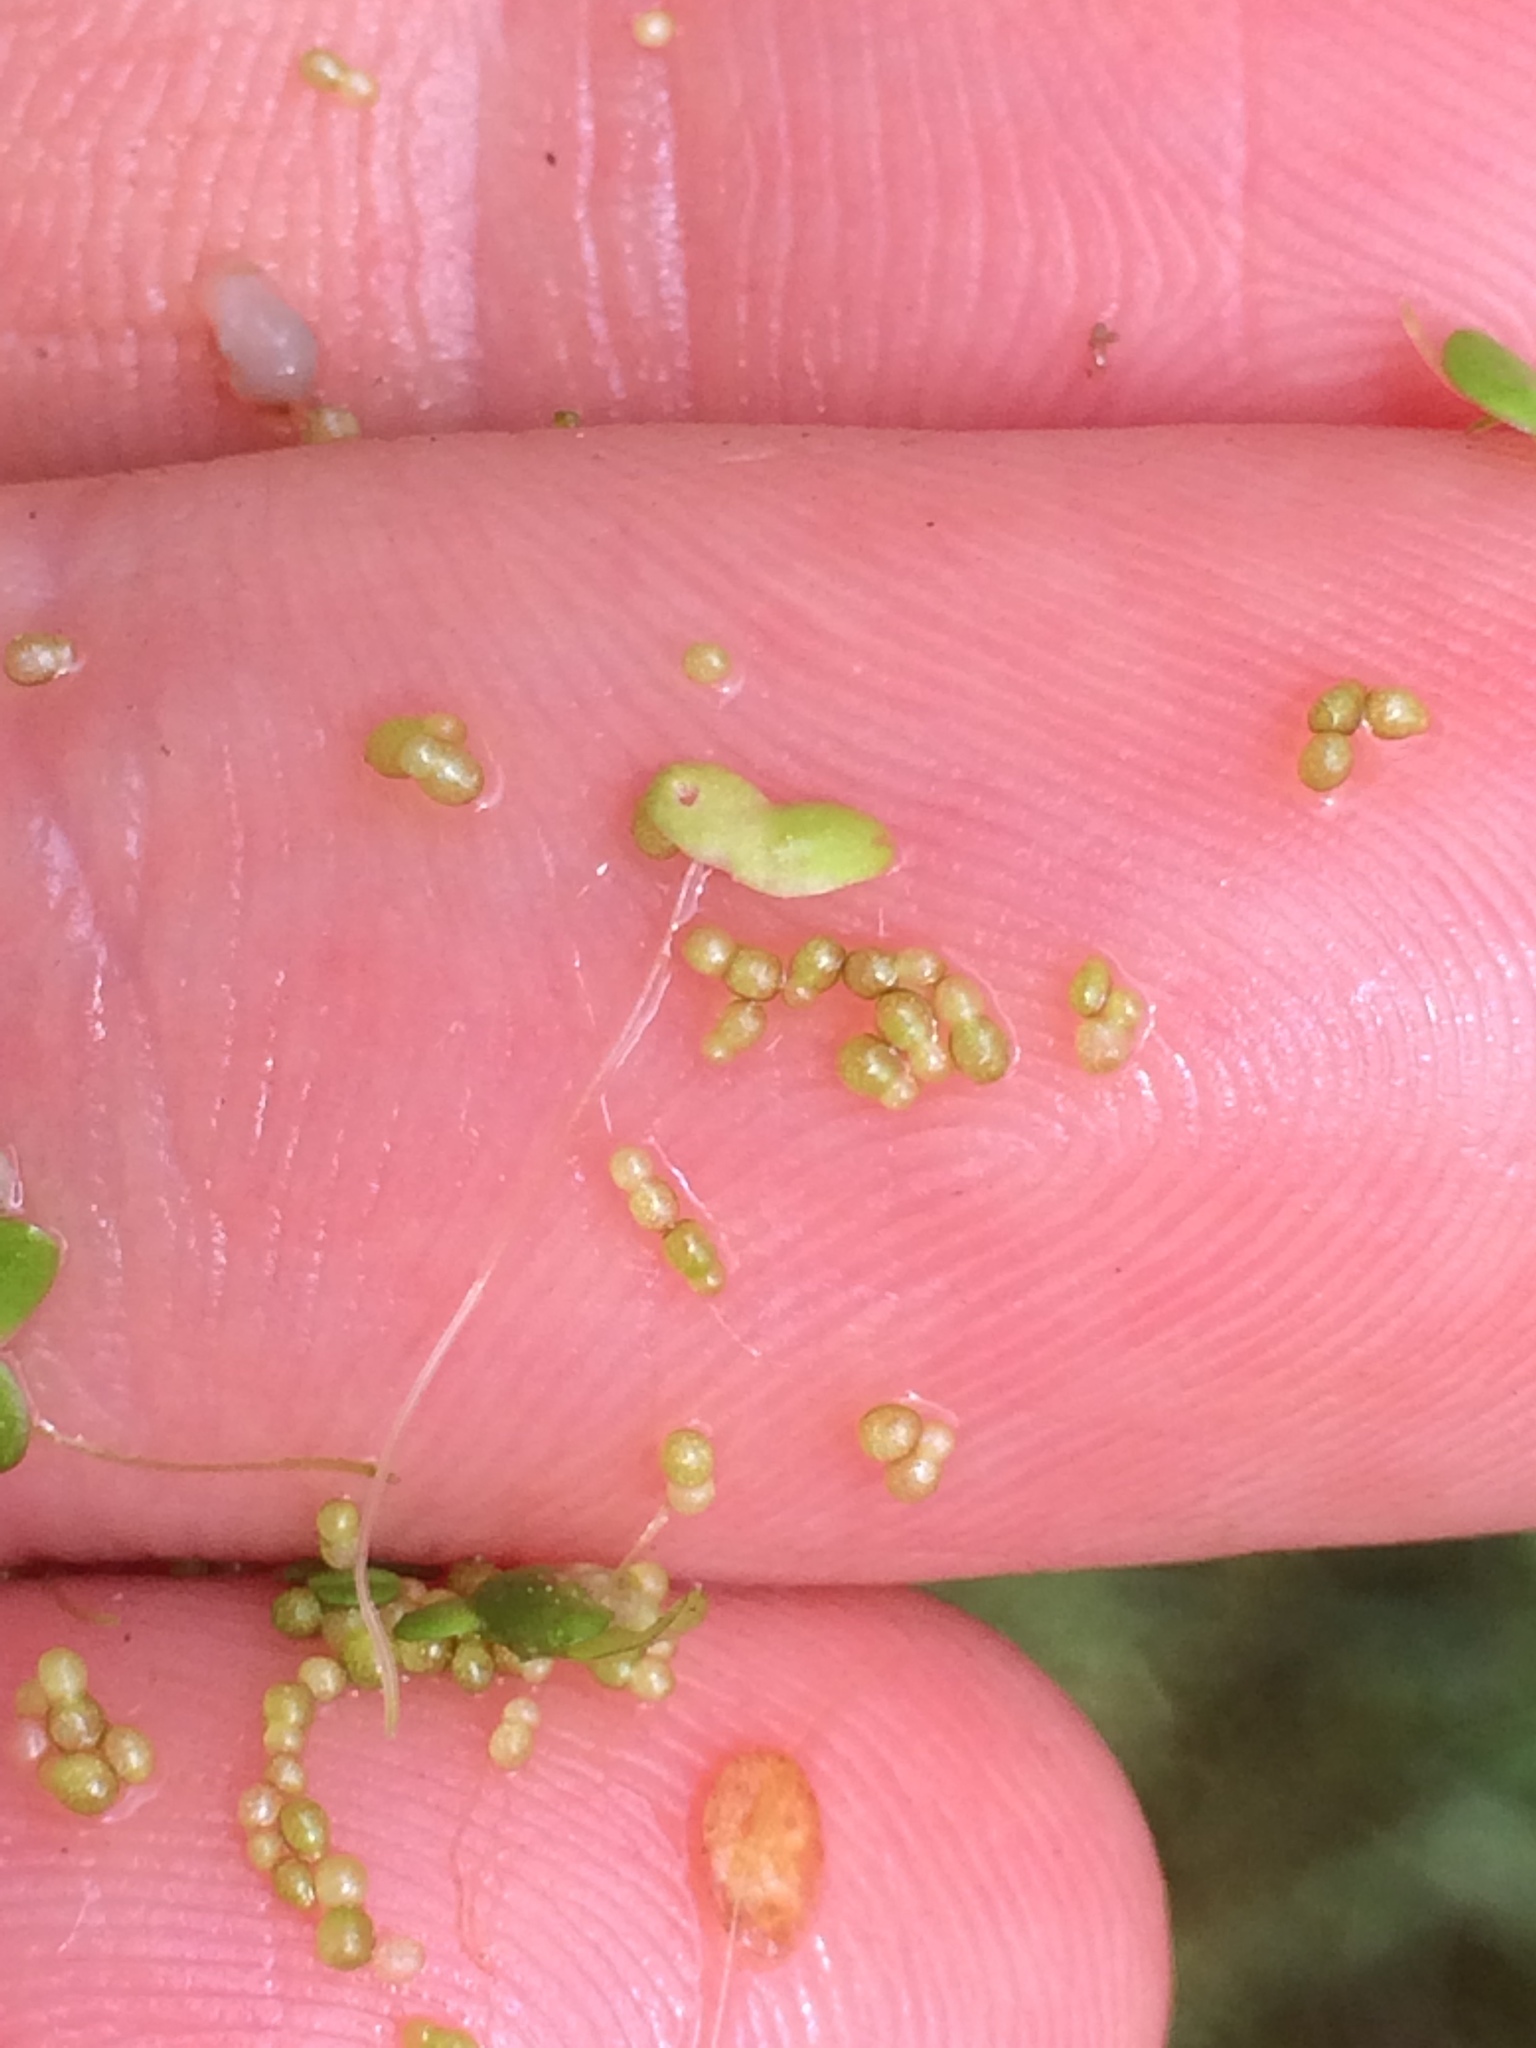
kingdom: Plantae
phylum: Tracheophyta
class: Liliopsida
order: Alismatales
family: Araceae
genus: Wolffia
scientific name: Wolffia columbiana
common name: Columbia watermeal
